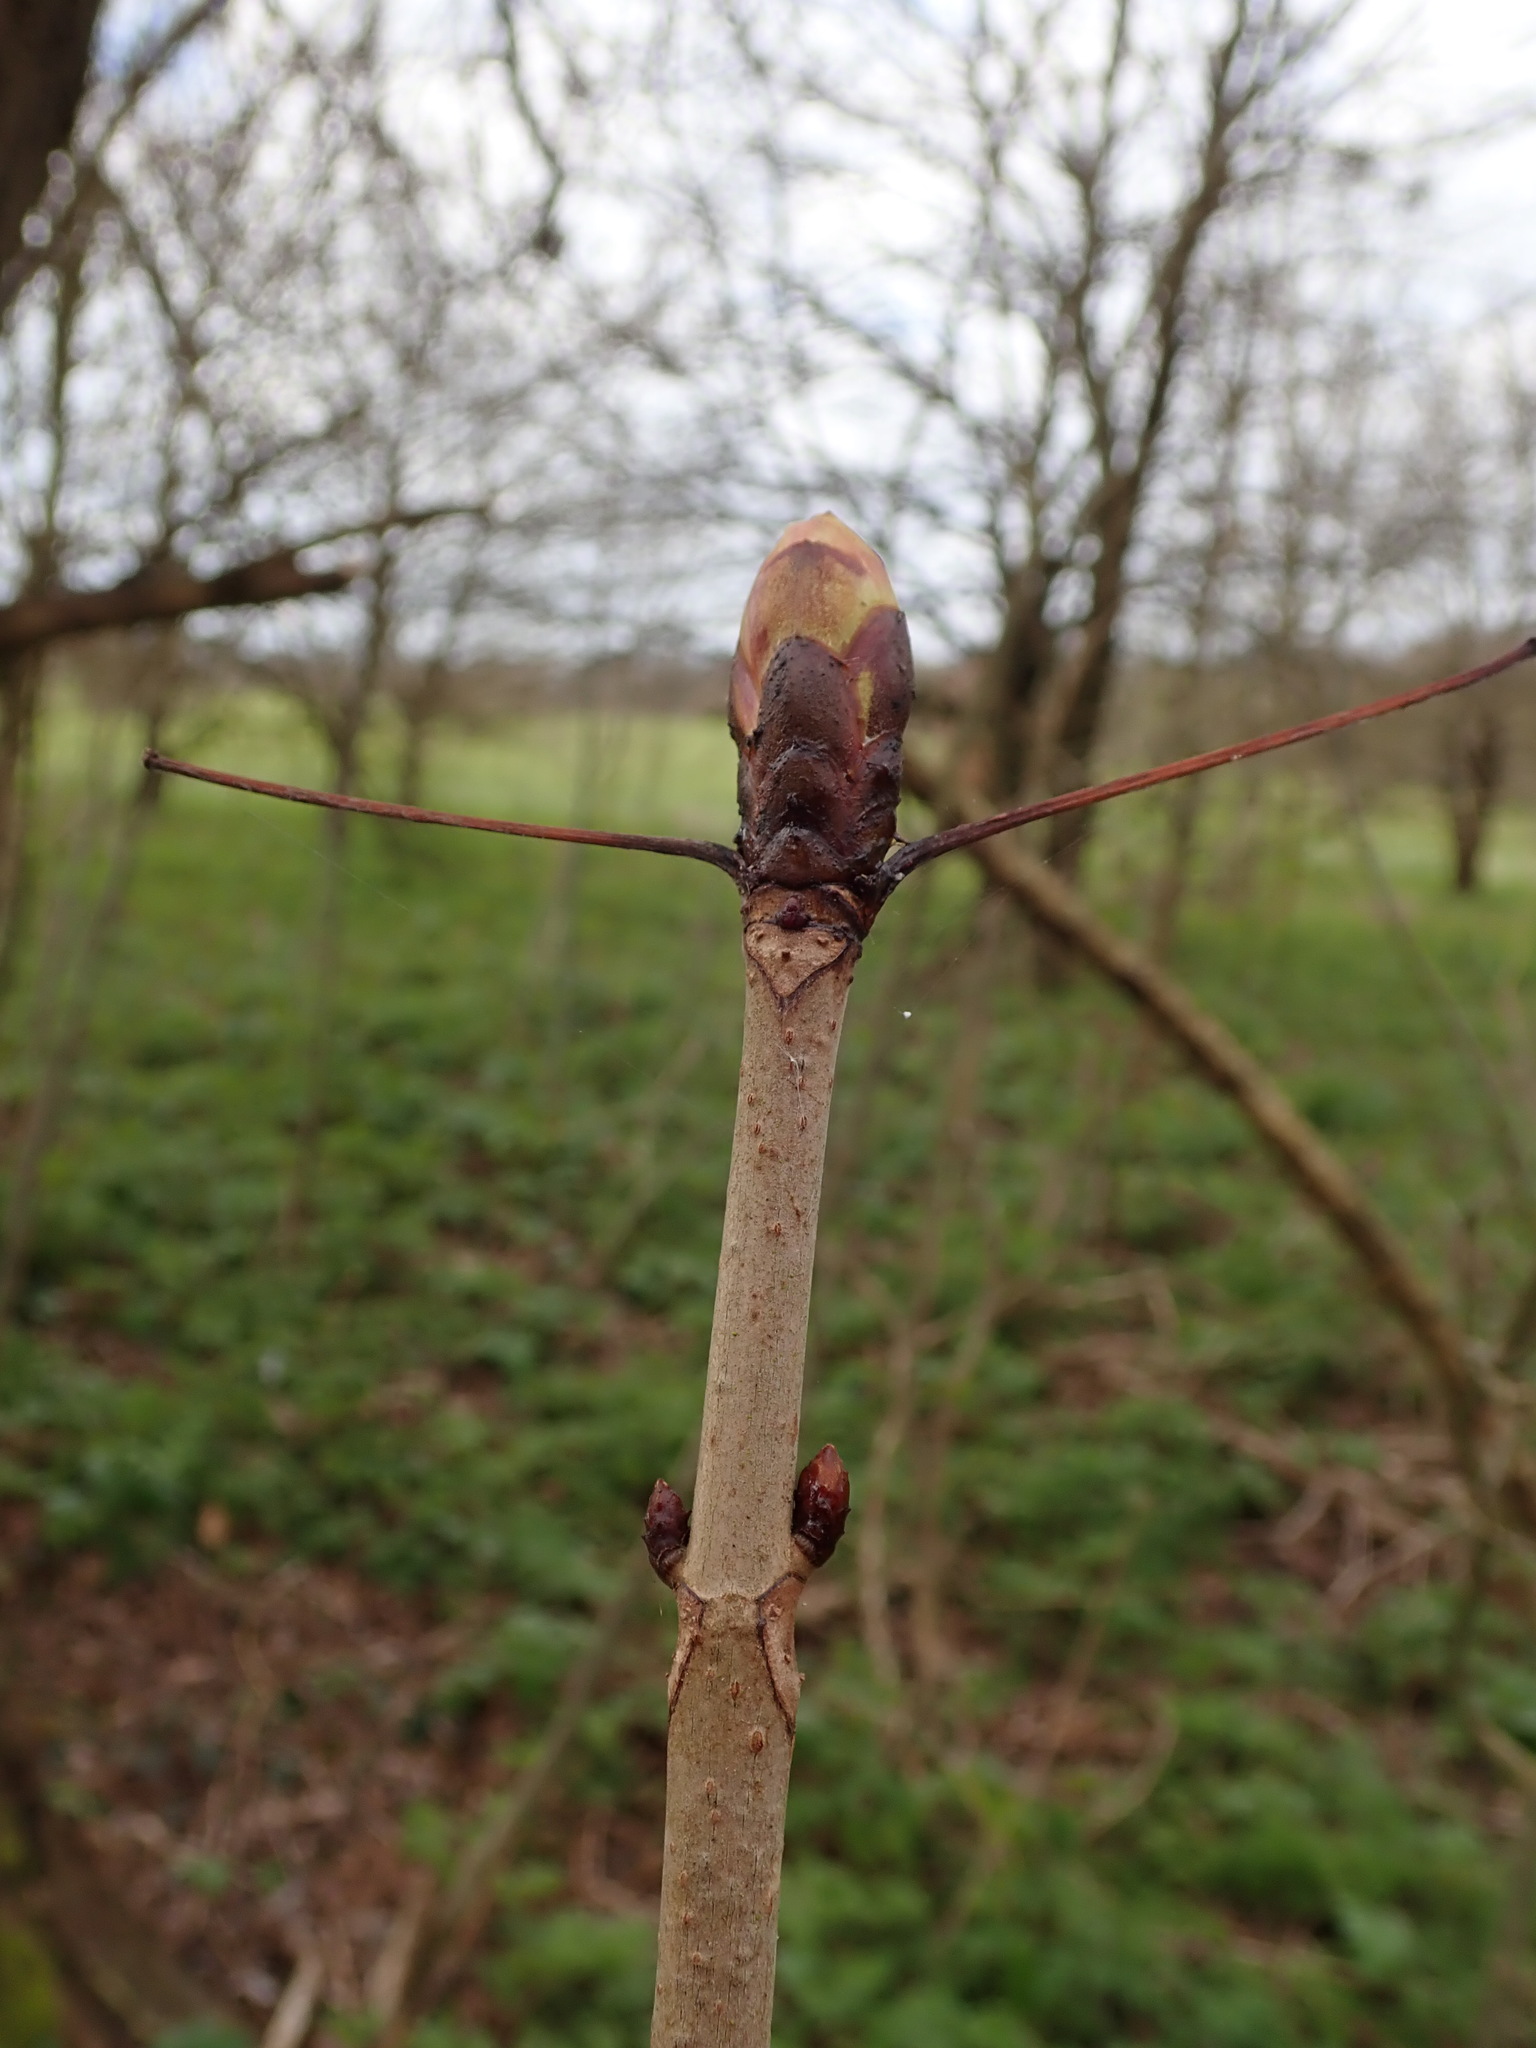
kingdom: Plantae
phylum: Tracheophyta
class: Magnoliopsida
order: Sapindales
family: Sapindaceae
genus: Aesculus
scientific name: Aesculus hippocastanum
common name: Horse-chestnut
